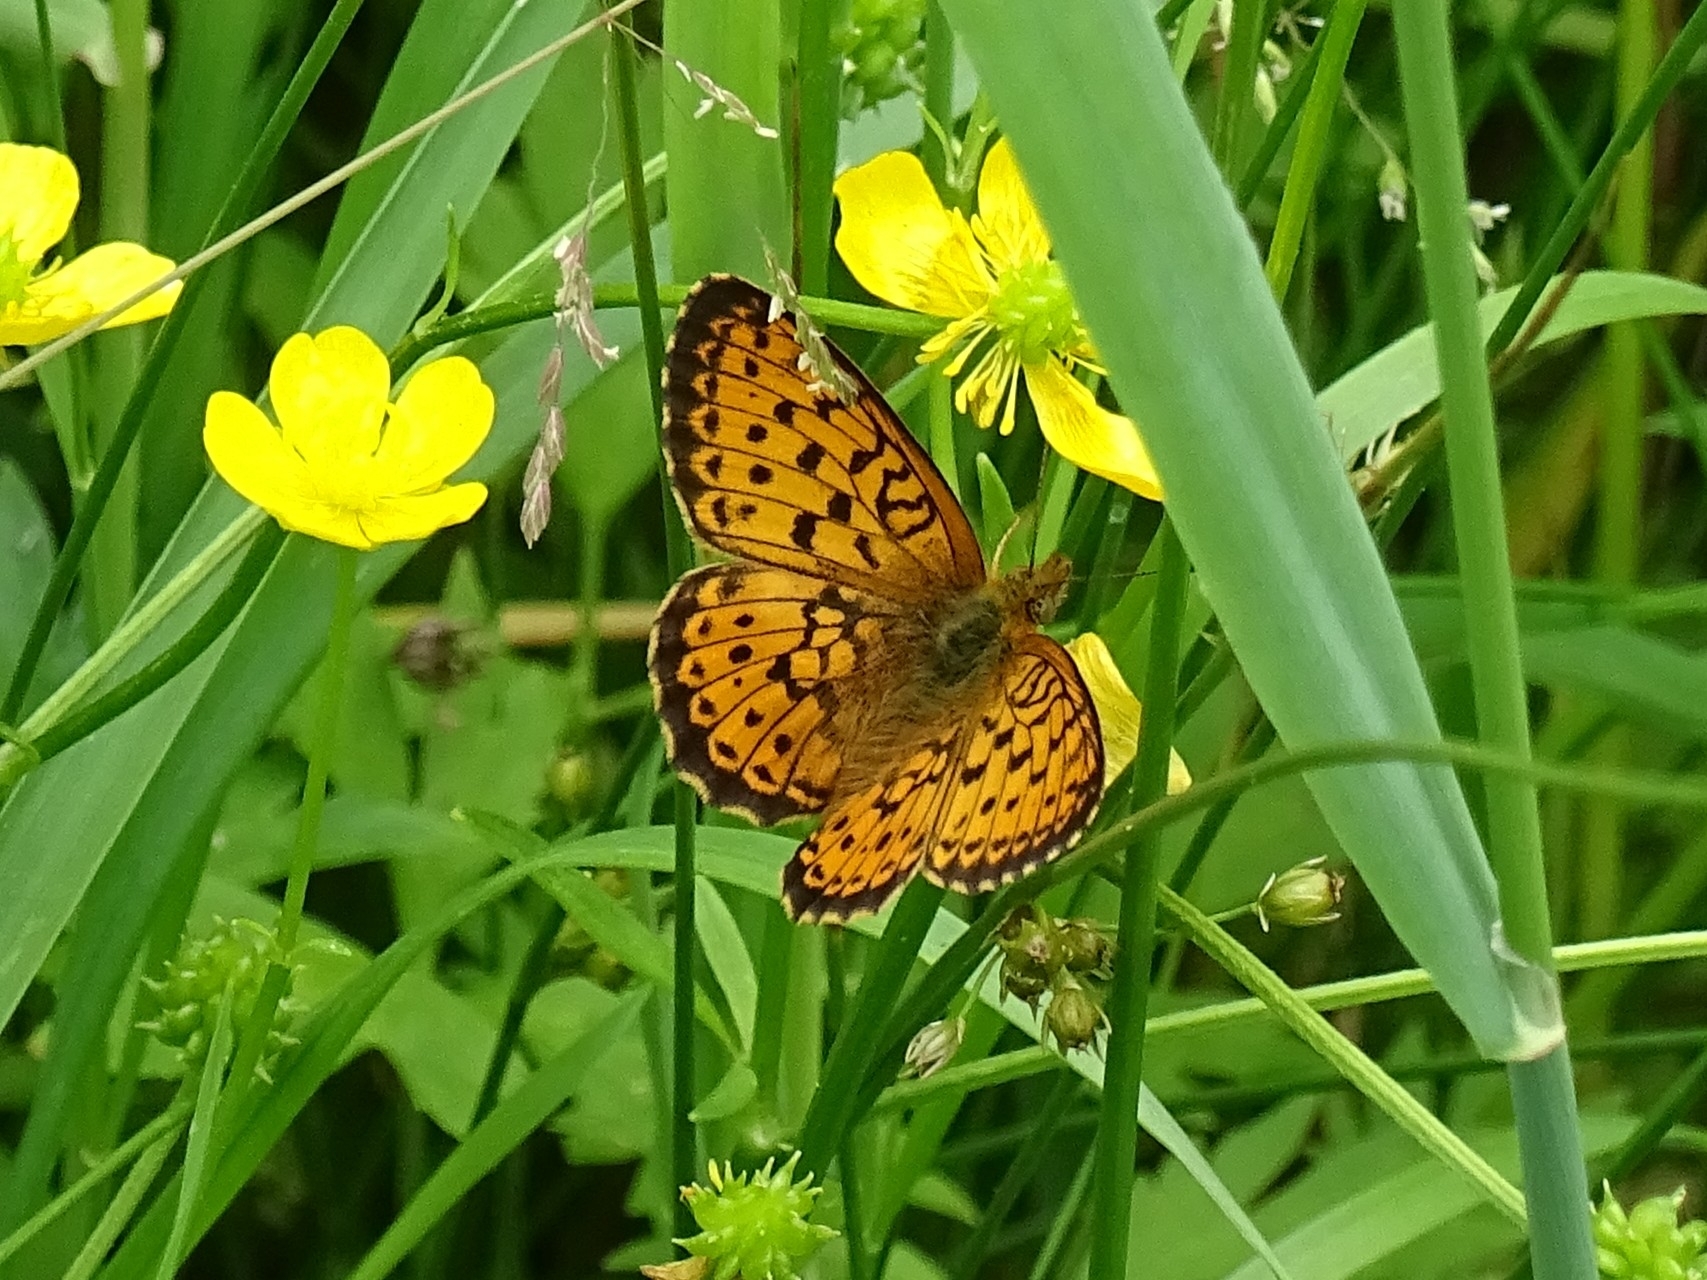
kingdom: Animalia
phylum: Arthropoda
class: Insecta
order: Lepidoptera
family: Nymphalidae
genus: Brenthis
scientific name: Brenthis ino
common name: Lesser marbled fritillary
